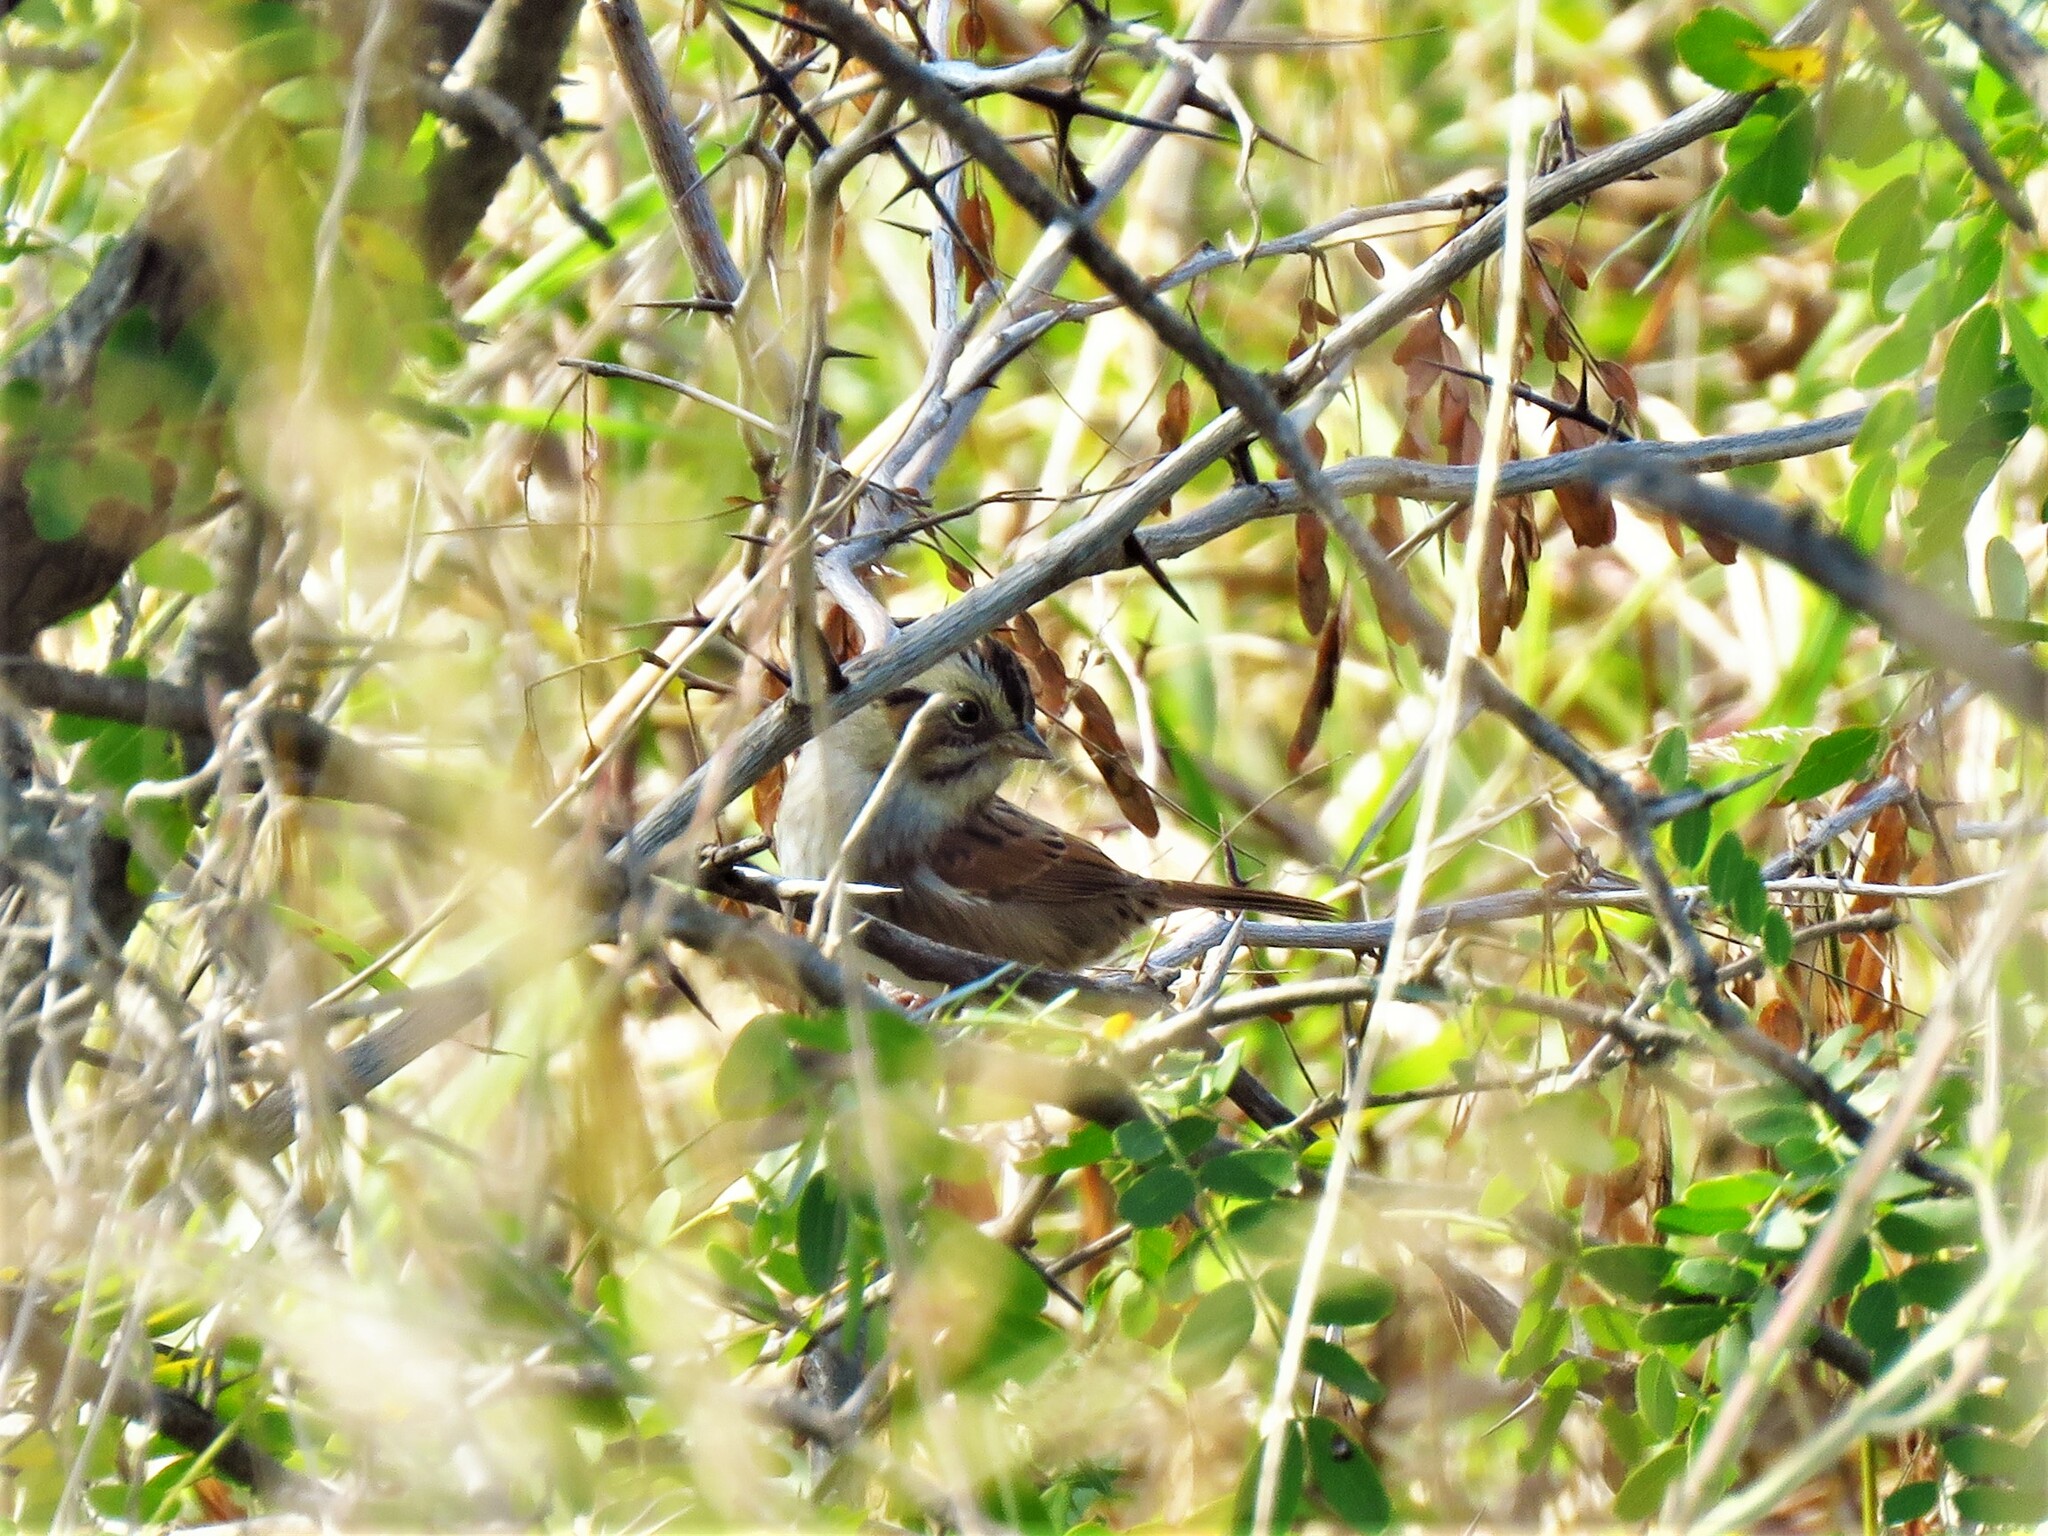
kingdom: Animalia
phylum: Chordata
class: Aves
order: Passeriformes
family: Passerellidae
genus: Melospiza
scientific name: Melospiza georgiana
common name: Swamp sparrow
